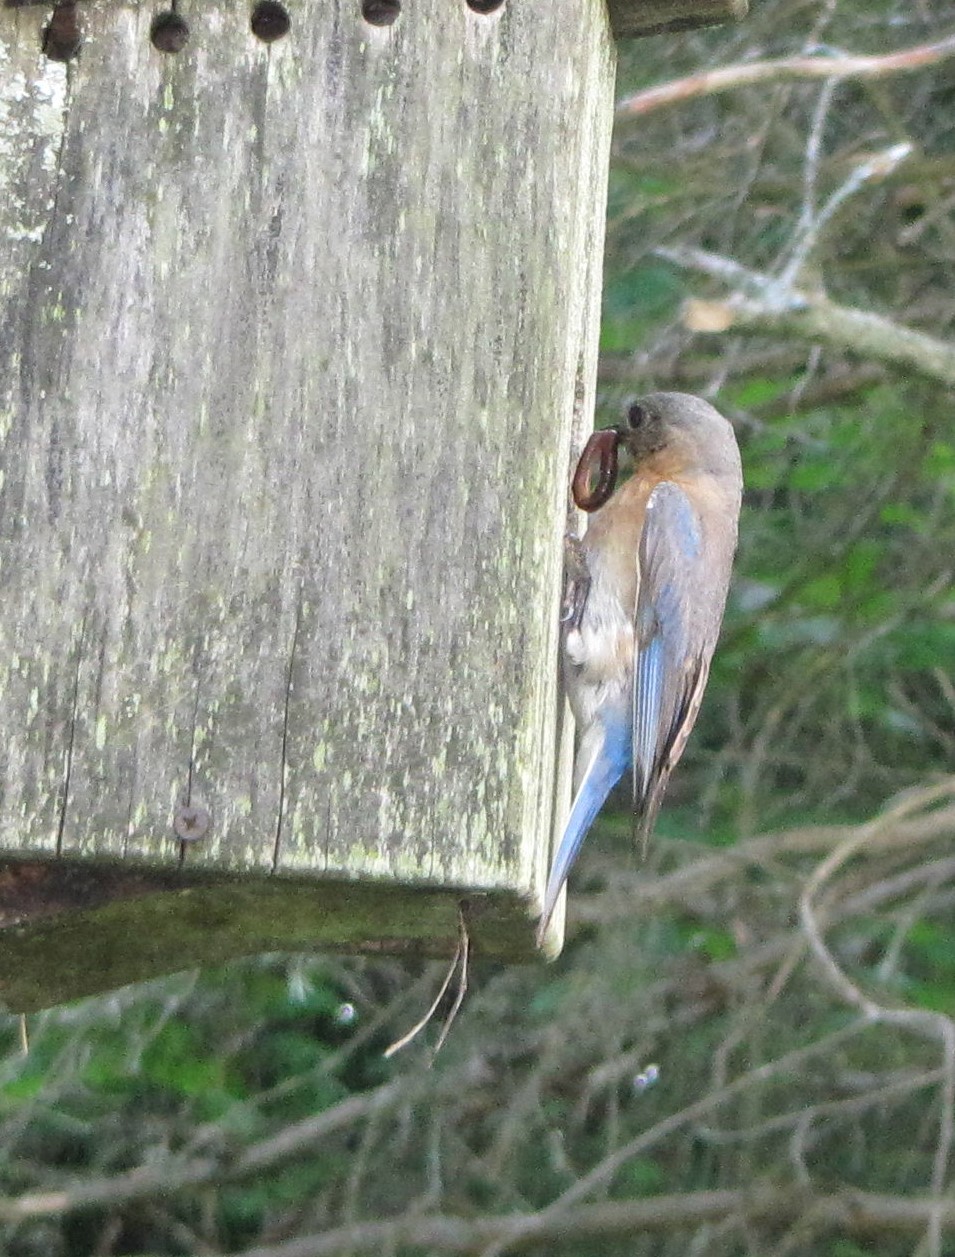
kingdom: Animalia
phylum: Chordata
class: Aves
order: Passeriformes
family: Turdidae
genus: Sialia
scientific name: Sialia sialis
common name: Eastern bluebird
